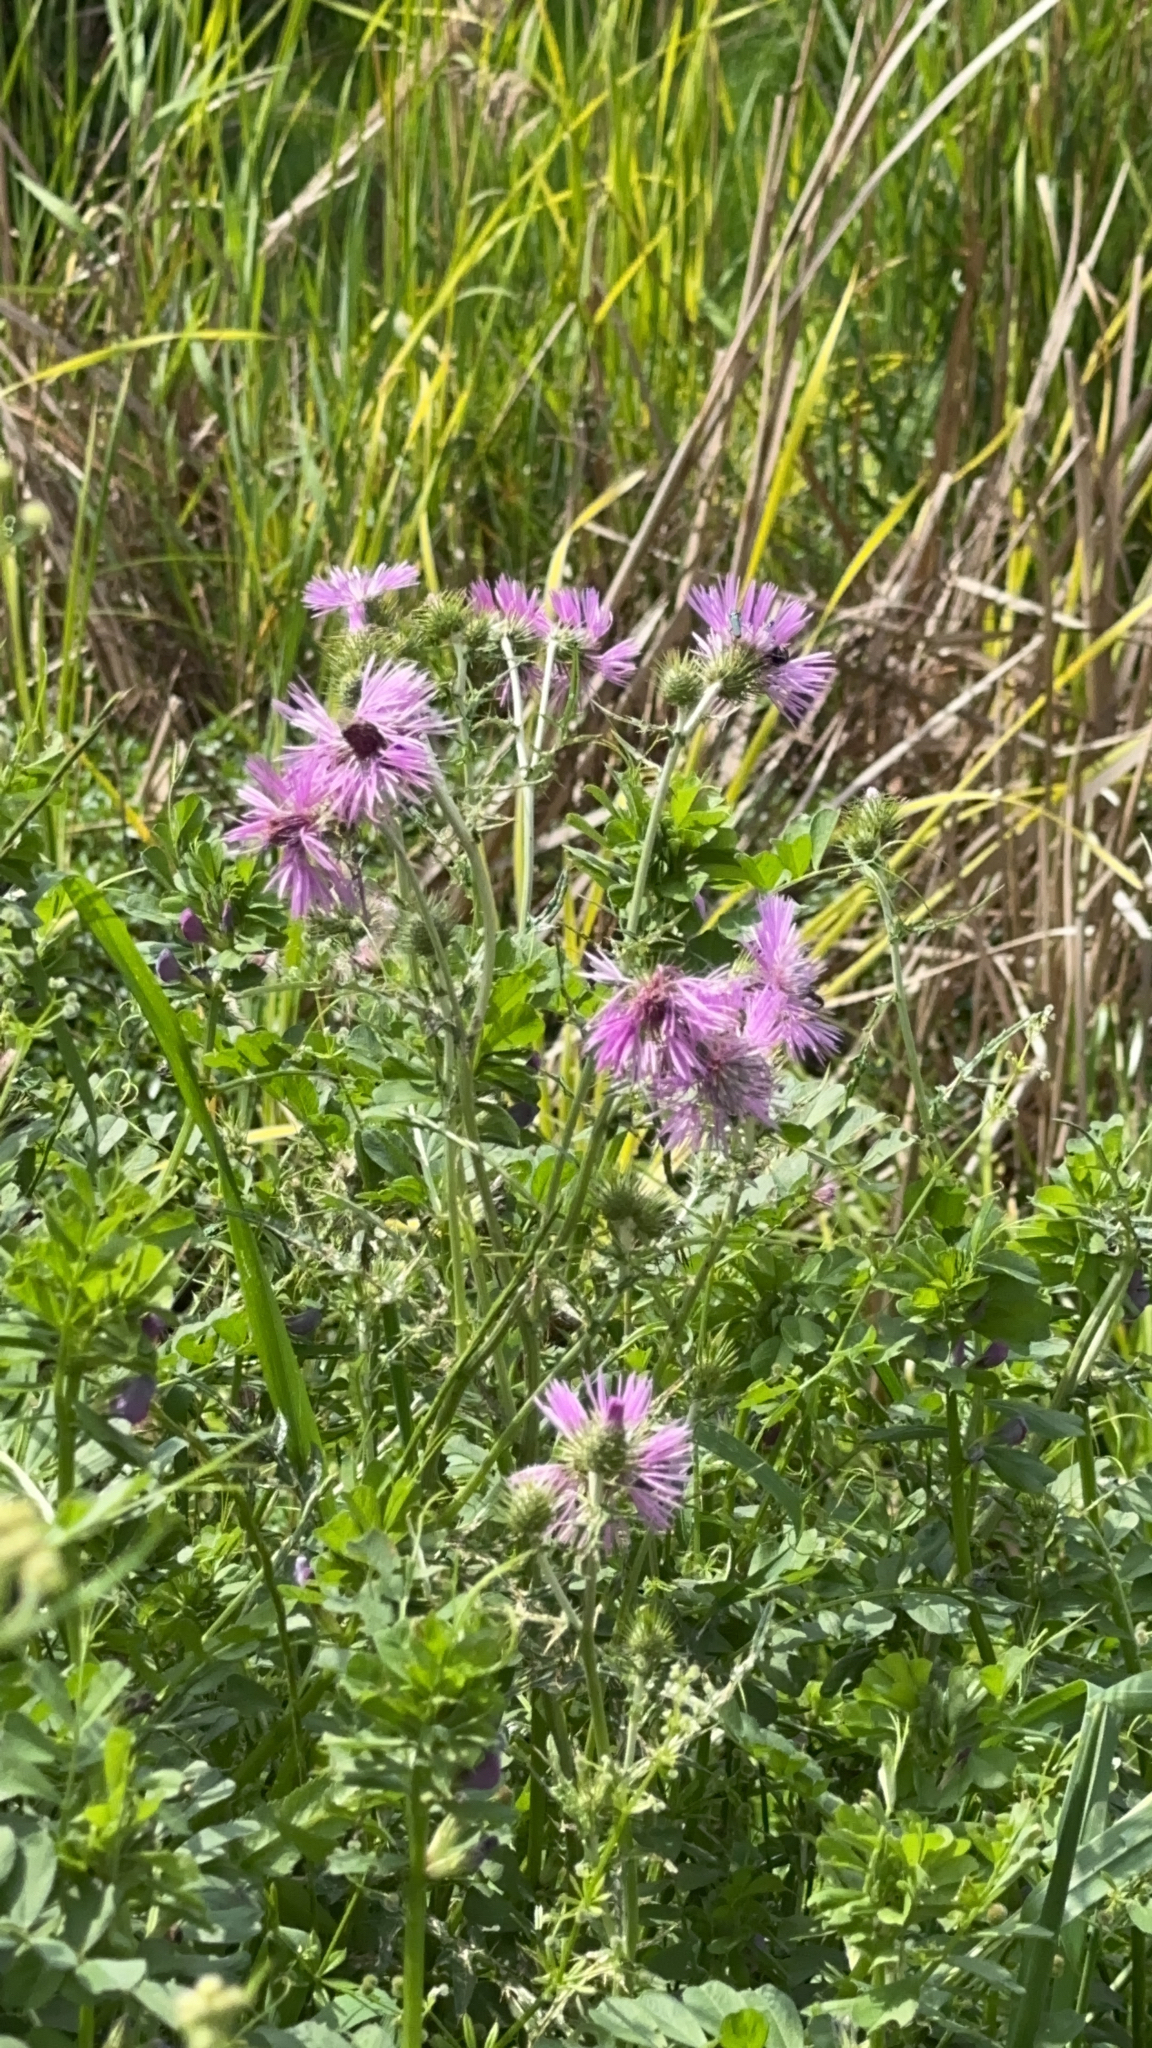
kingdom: Plantae
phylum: Tracheophyta
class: Magnoliopsida
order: Asterales
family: Asteraceae
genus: Galactites
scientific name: Galactites tomentosa
